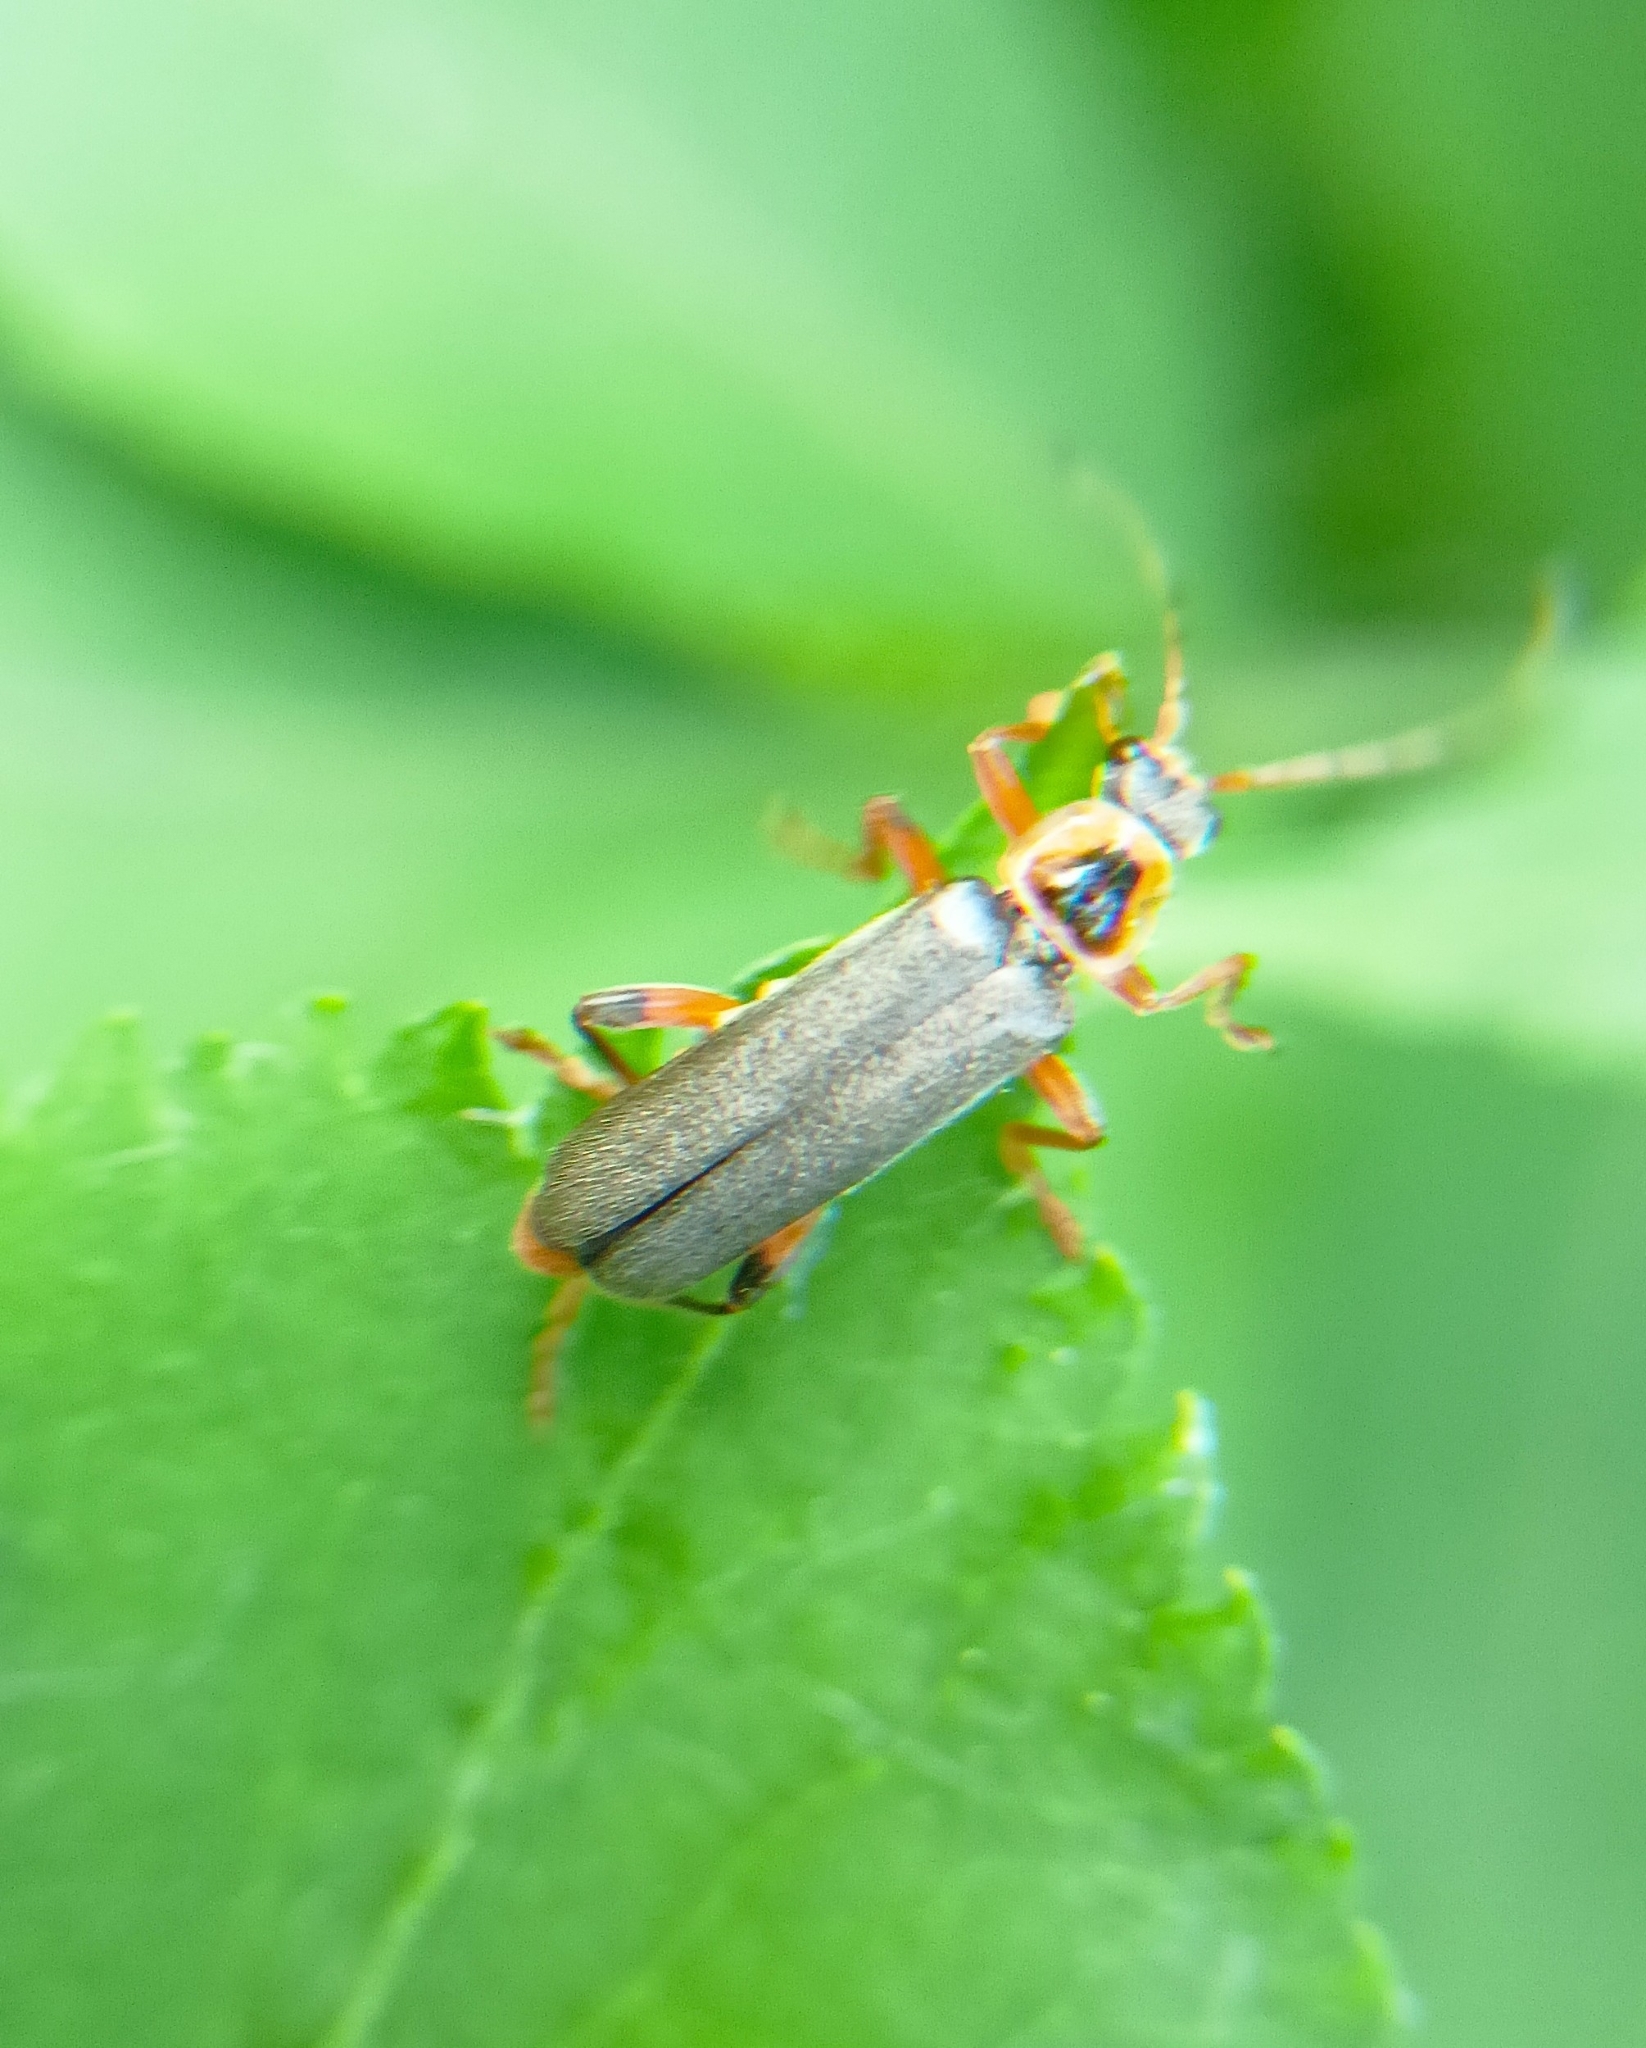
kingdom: Animalia
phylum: Arthropoda
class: Insecta
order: Coleoptera
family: Cantharidae
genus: Cantharis
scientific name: Cantharis nigricans
